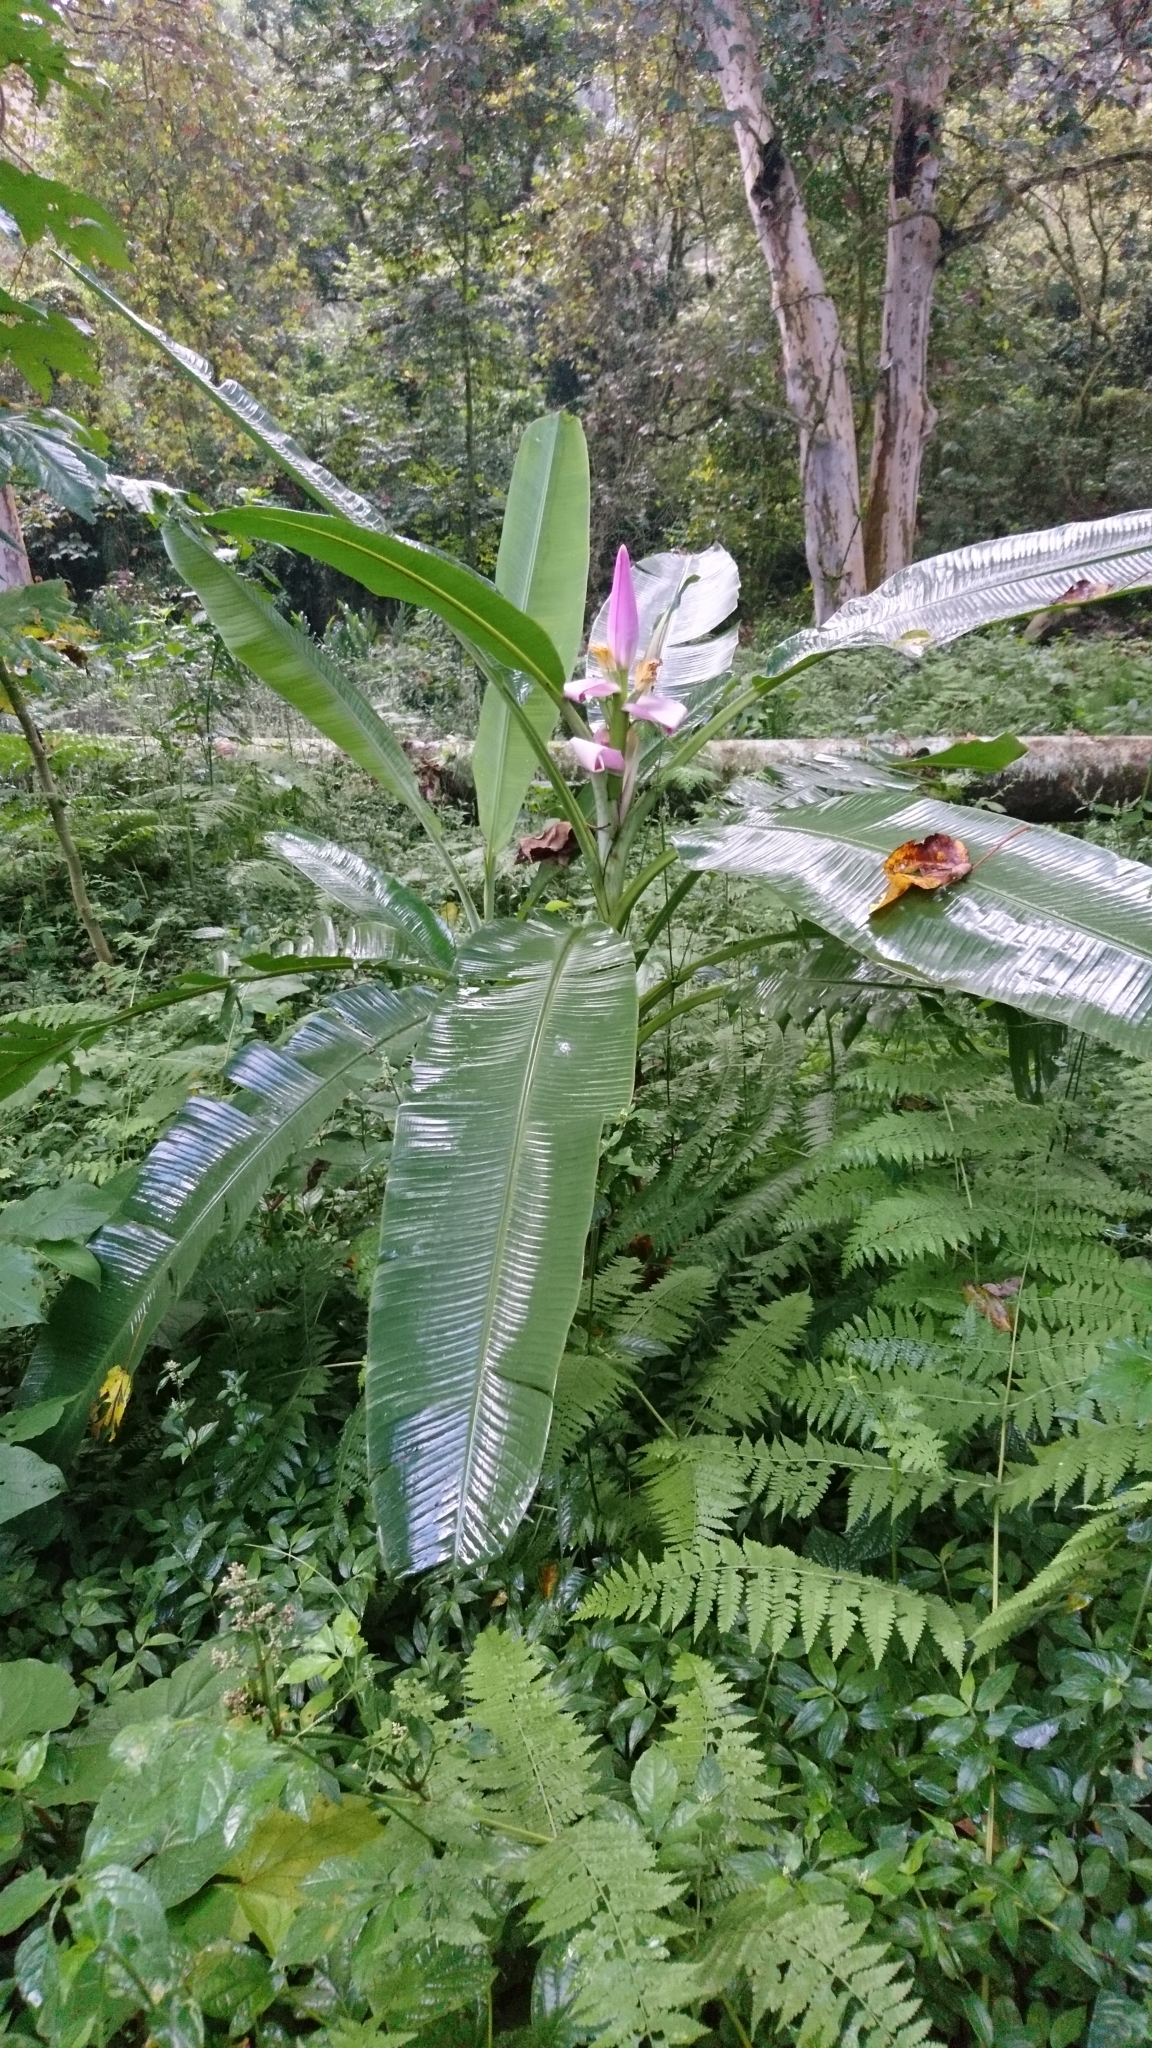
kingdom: Plantae
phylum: Tracheophyta
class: Liliopsida
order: Zingiberales
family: Musaceae
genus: Musa
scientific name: Musa ornata
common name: Flowering banana
